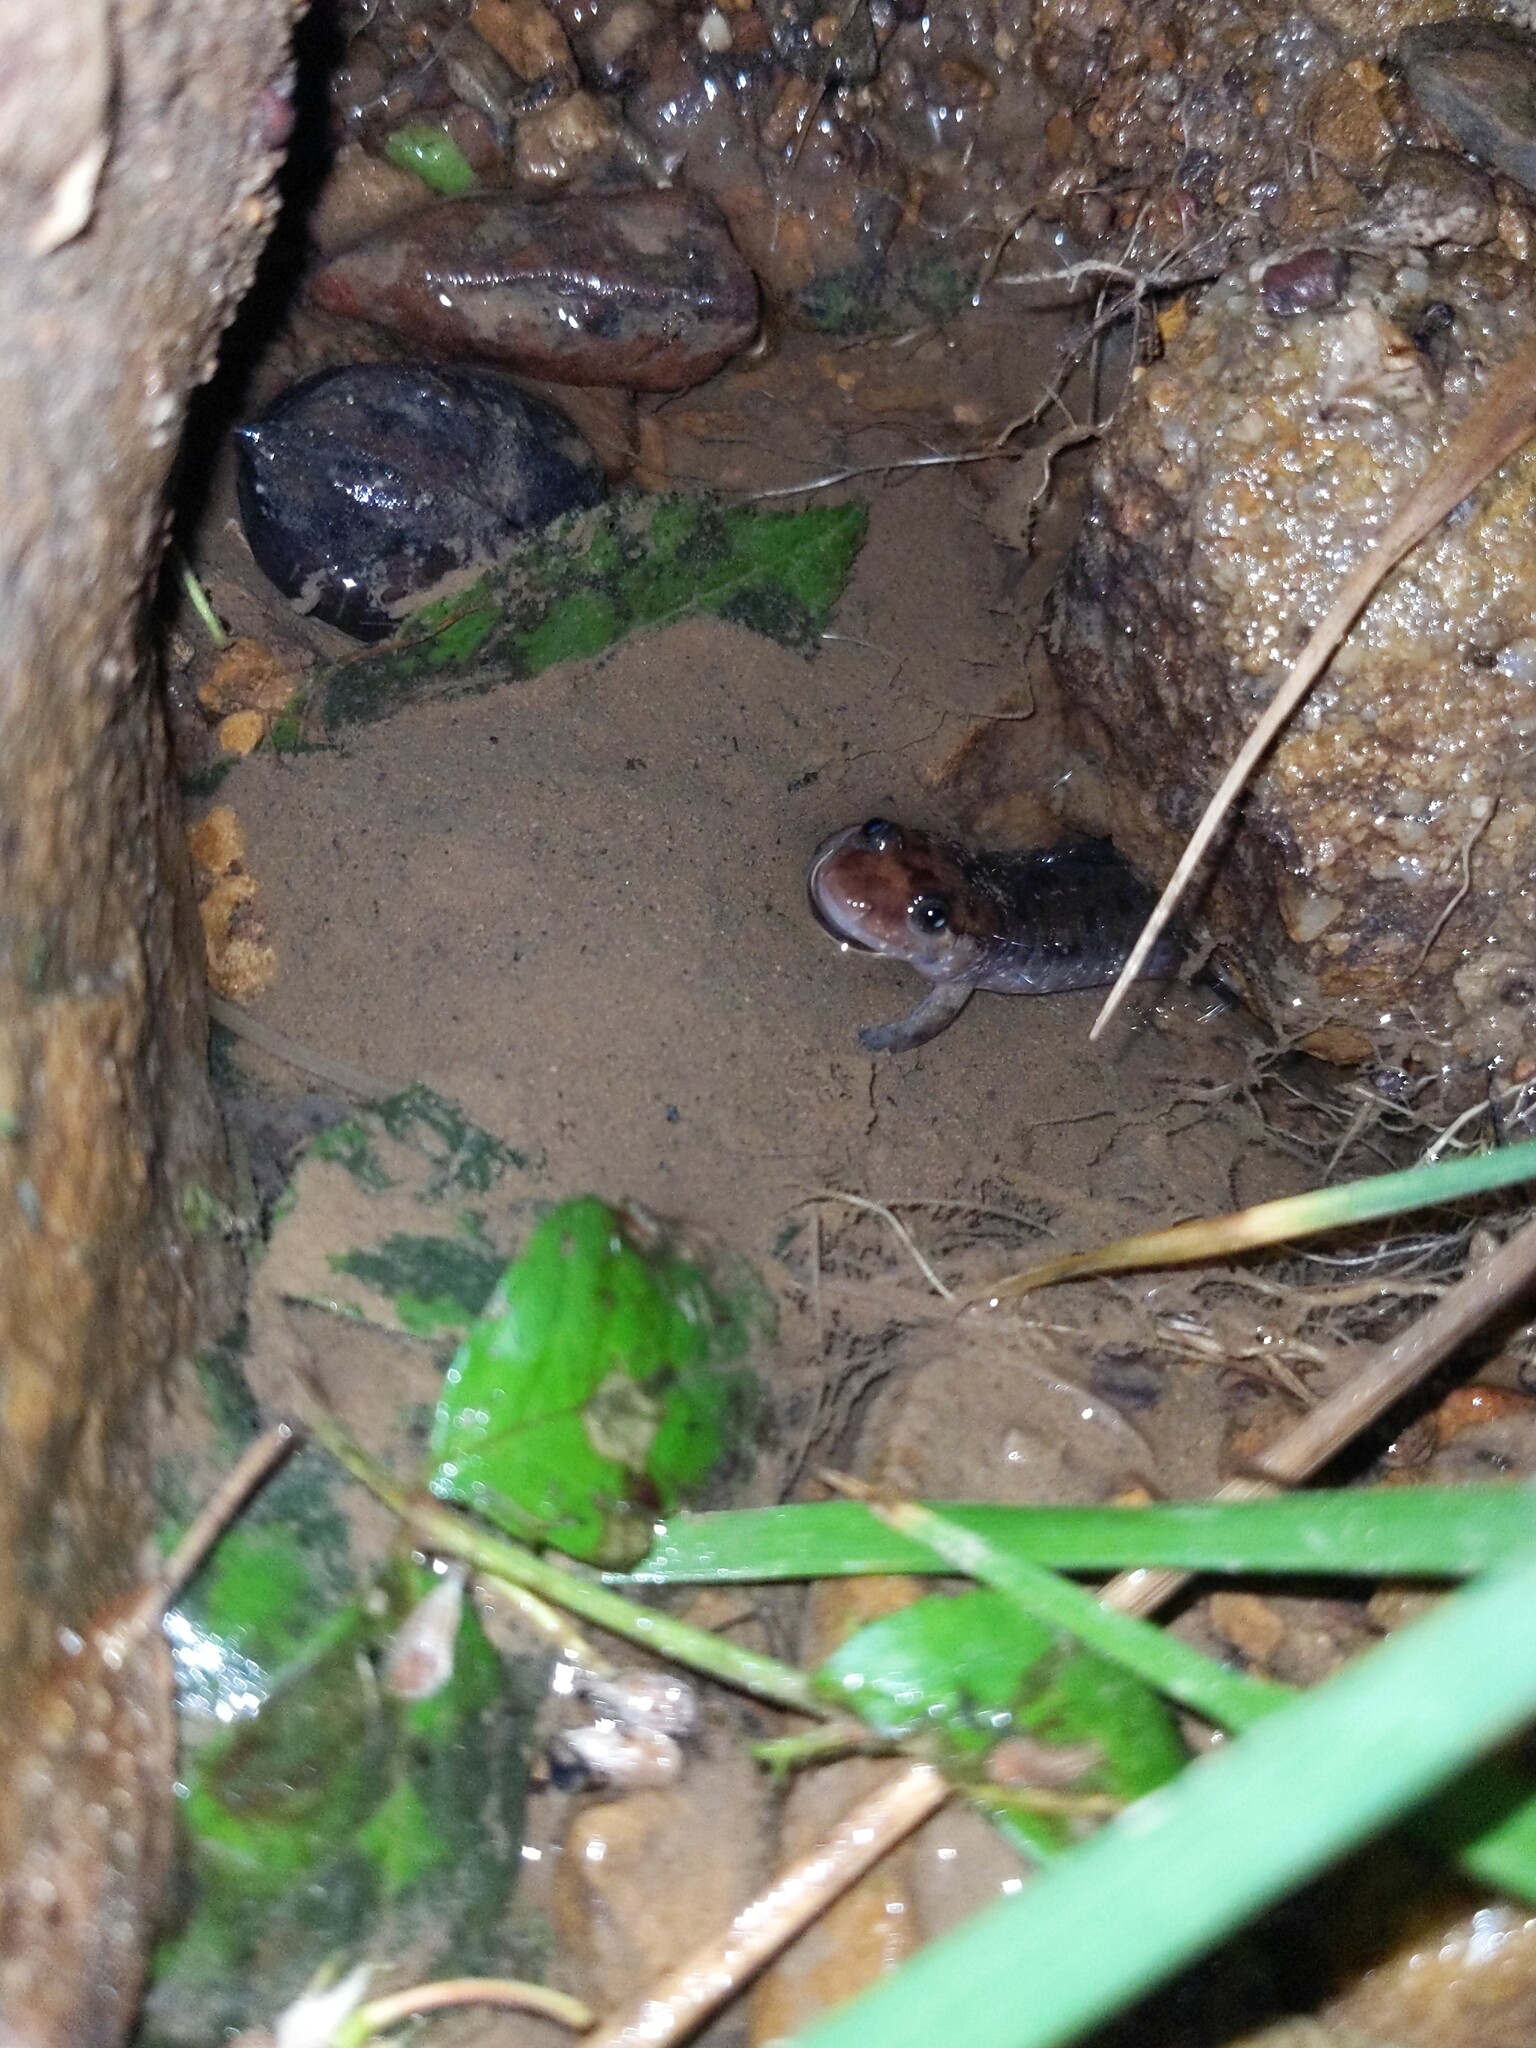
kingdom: Animalia
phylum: Chordata
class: Amphibia
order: Caudata
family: Plethodontidae
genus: Desmognathus
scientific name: Desmognathus monticola
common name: Seal salamander
